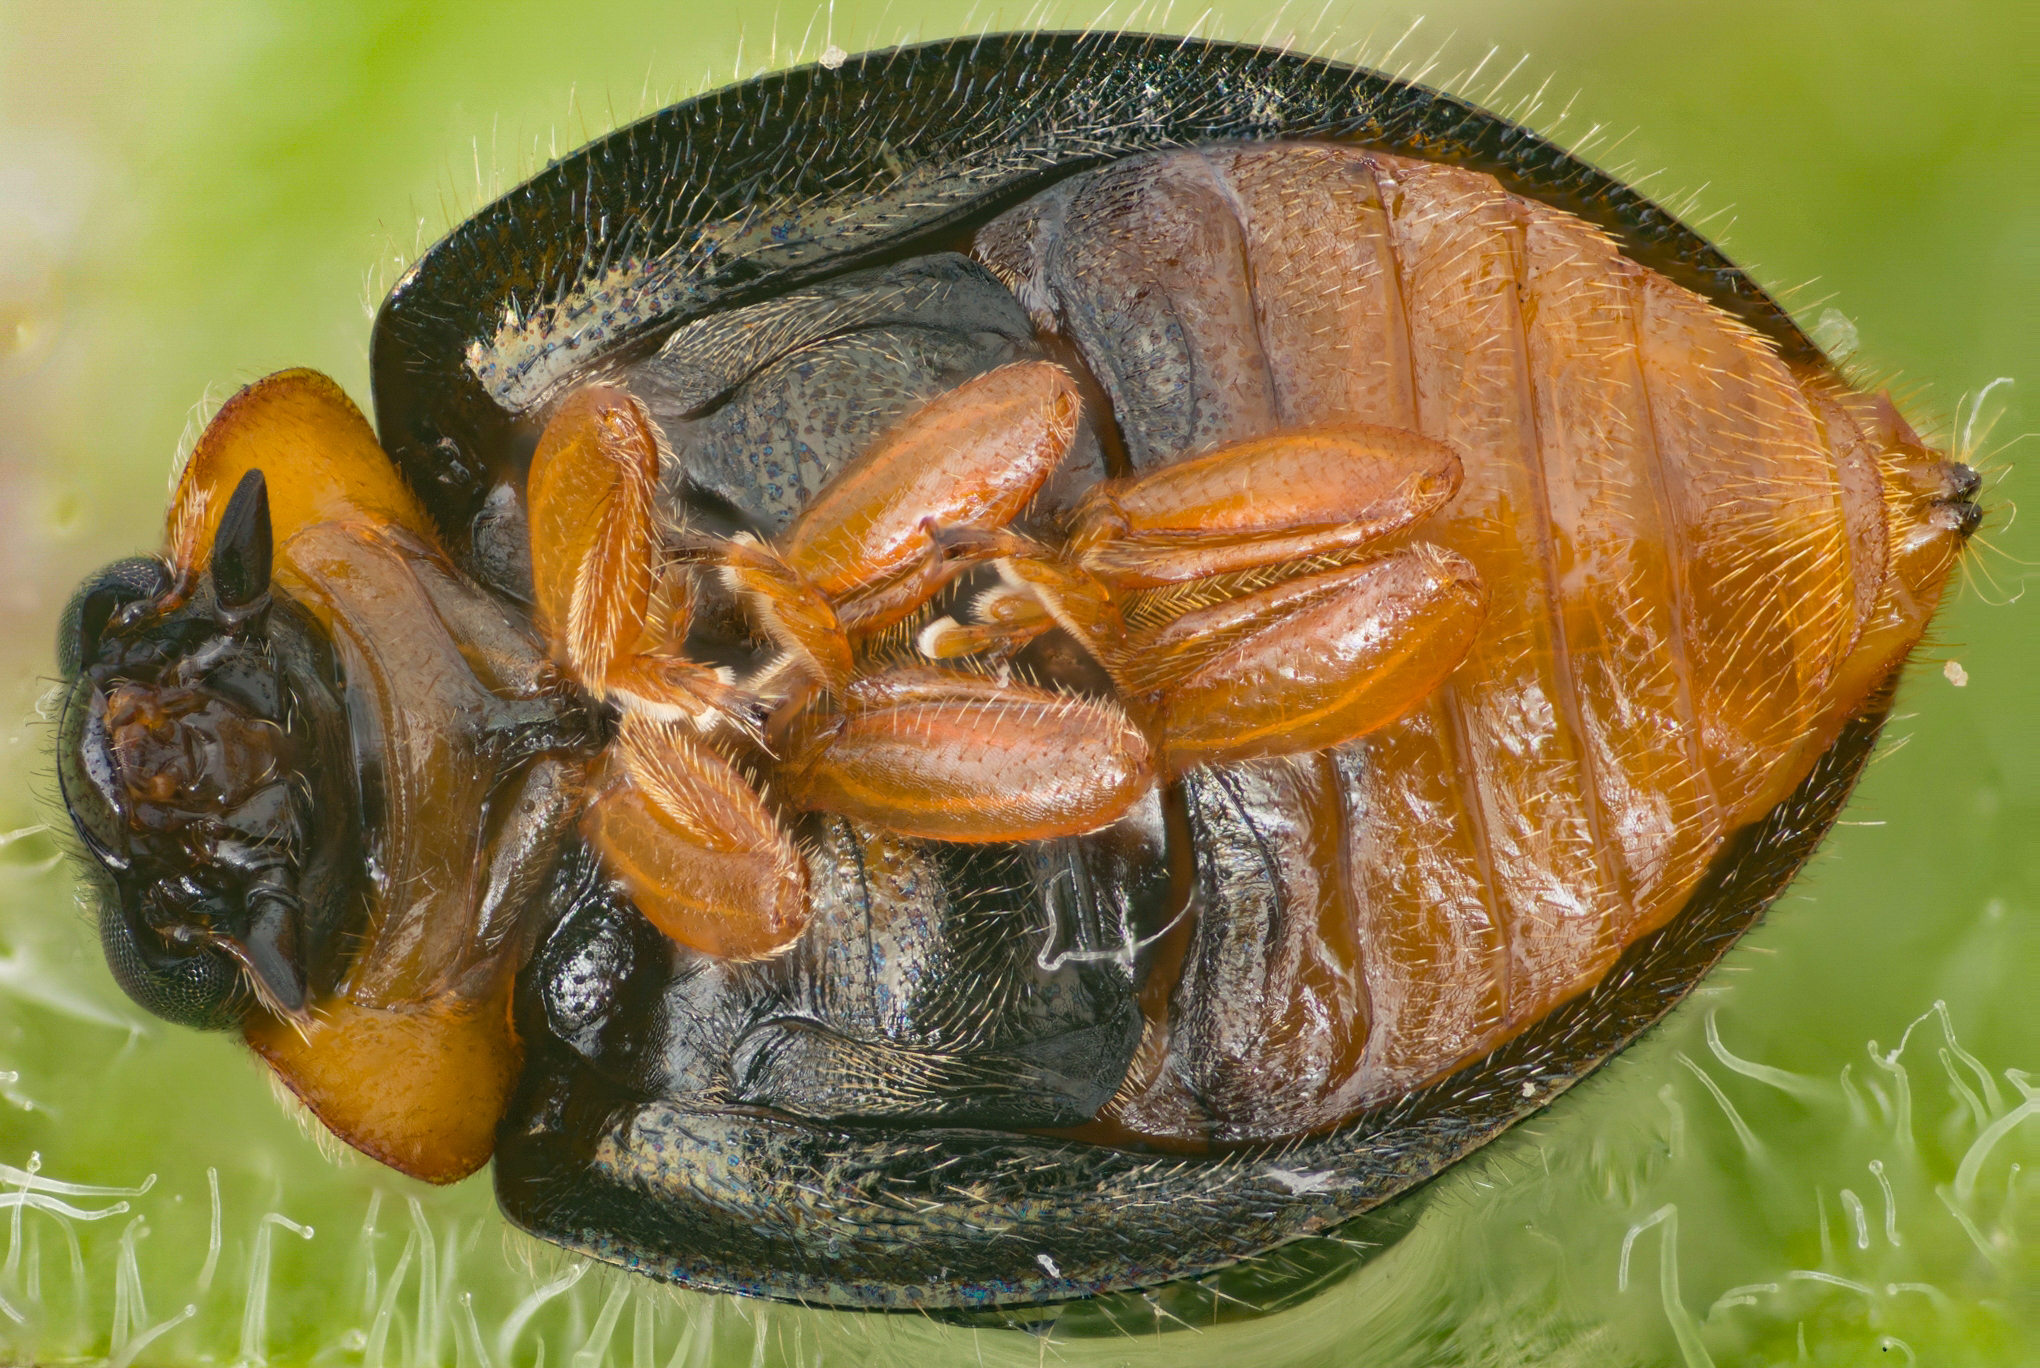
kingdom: Animalia
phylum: Arthropoda
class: Insecta
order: Coleoptera
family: Coccinellidae
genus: Exochomus
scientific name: Exochomus metallicus
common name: Ladybird beetle
